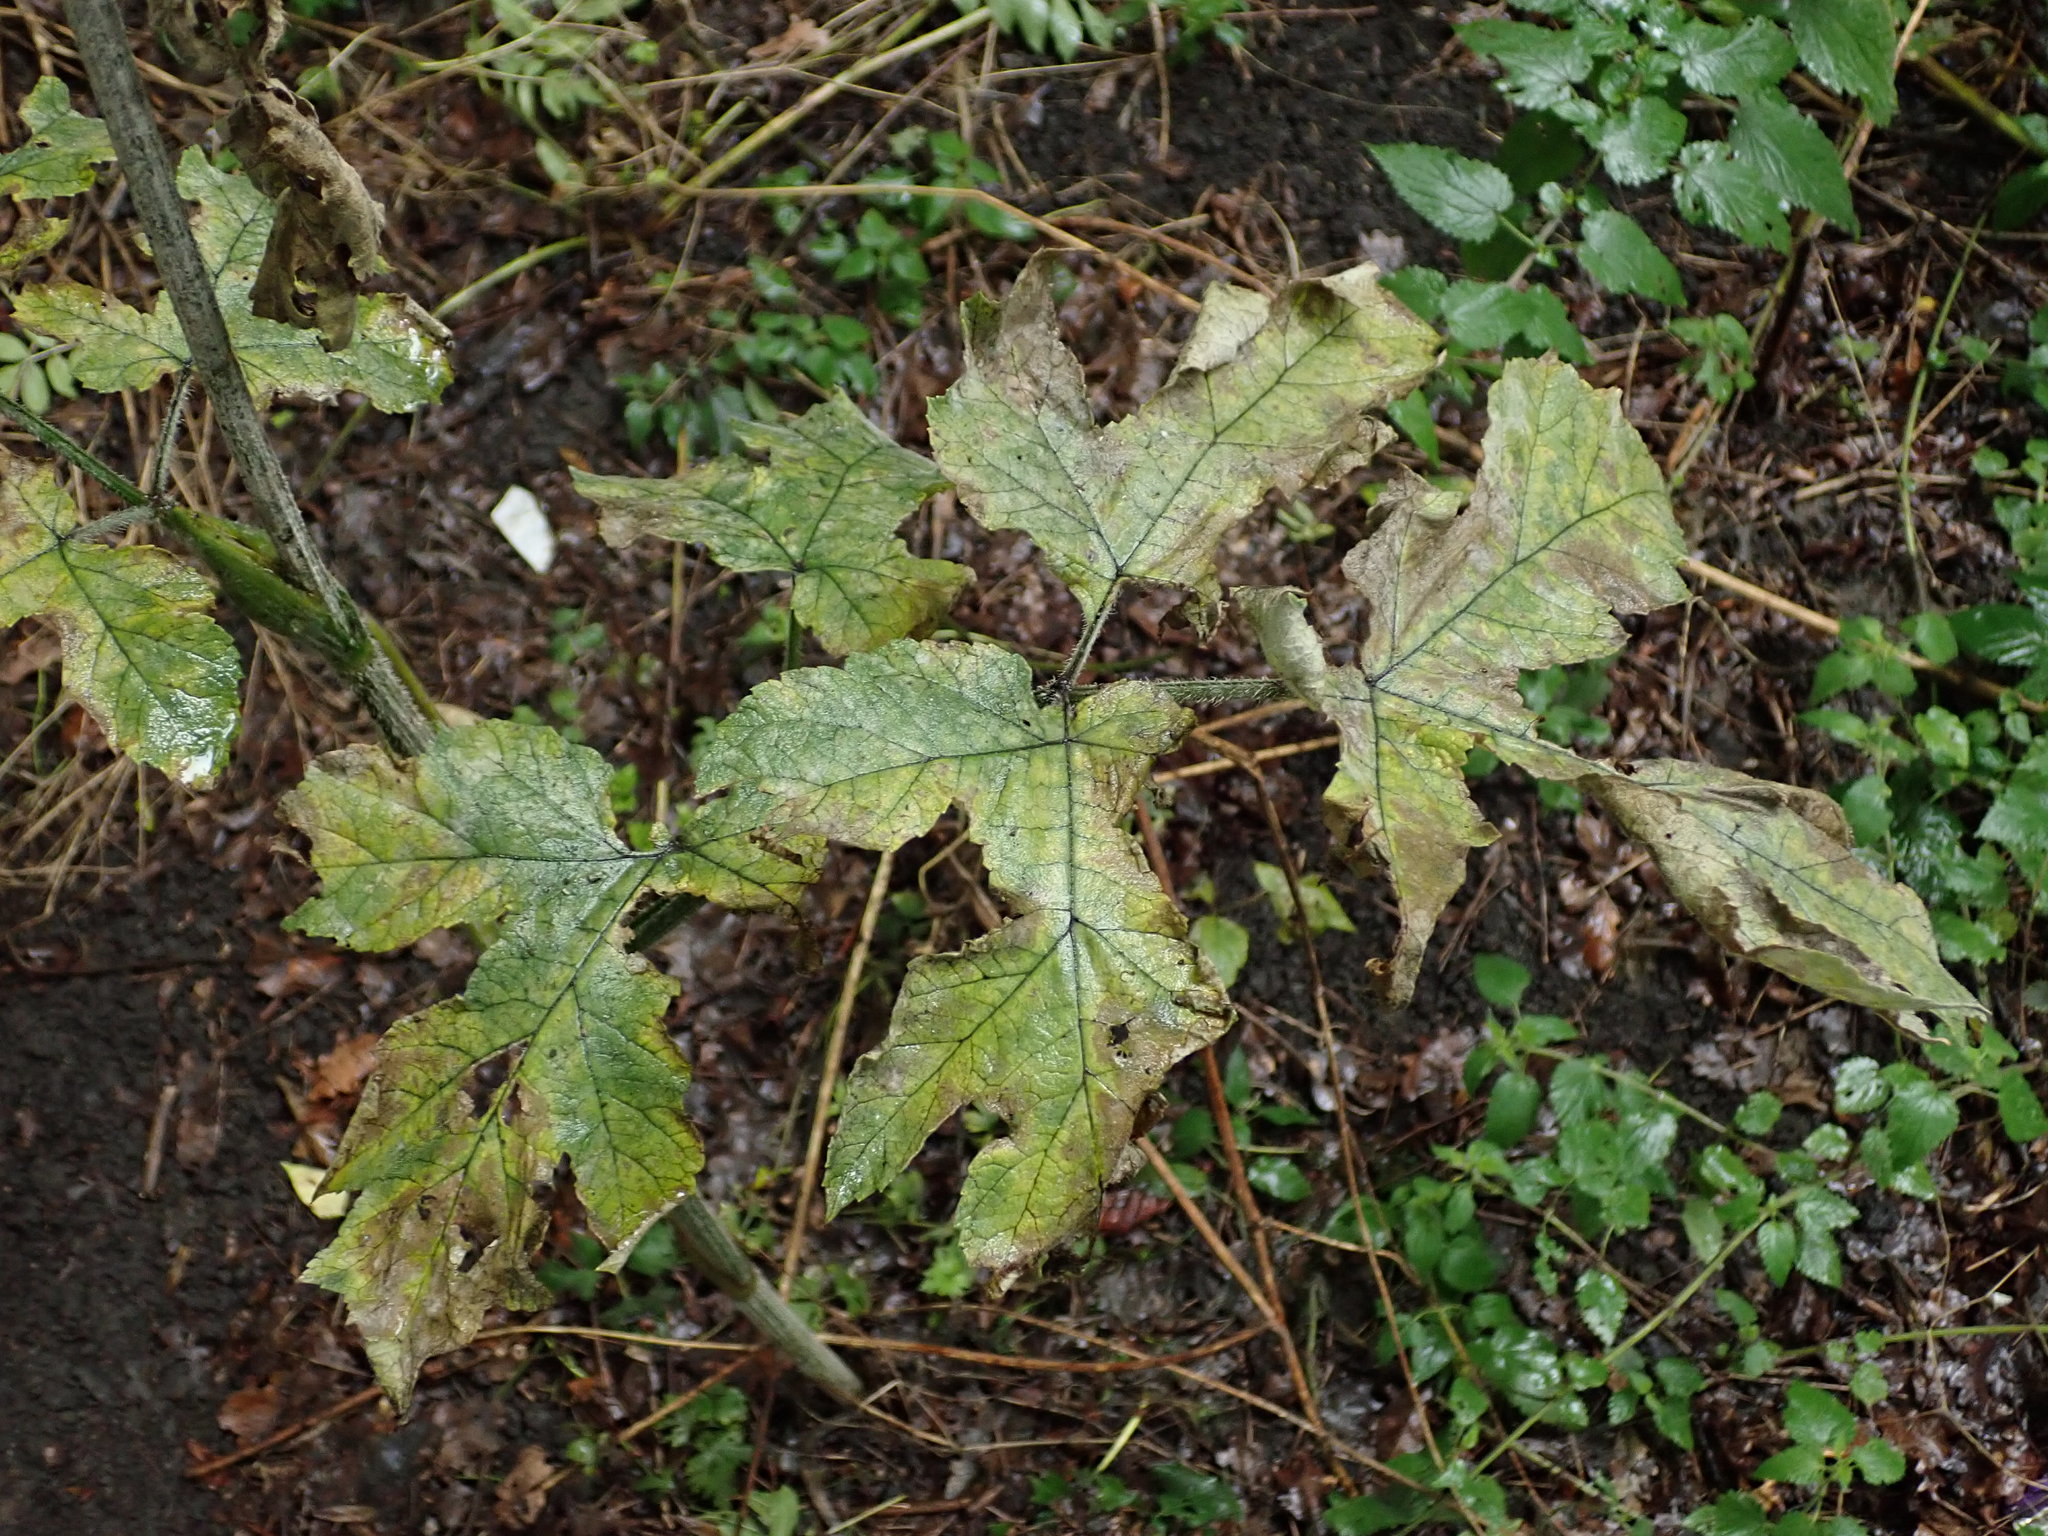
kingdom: Plantae
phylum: Tracheophyta
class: Magnoliopsida
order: Apiales
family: Apiaceae
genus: Heracleum
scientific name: Heracleum sphondylium
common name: Hogweed
